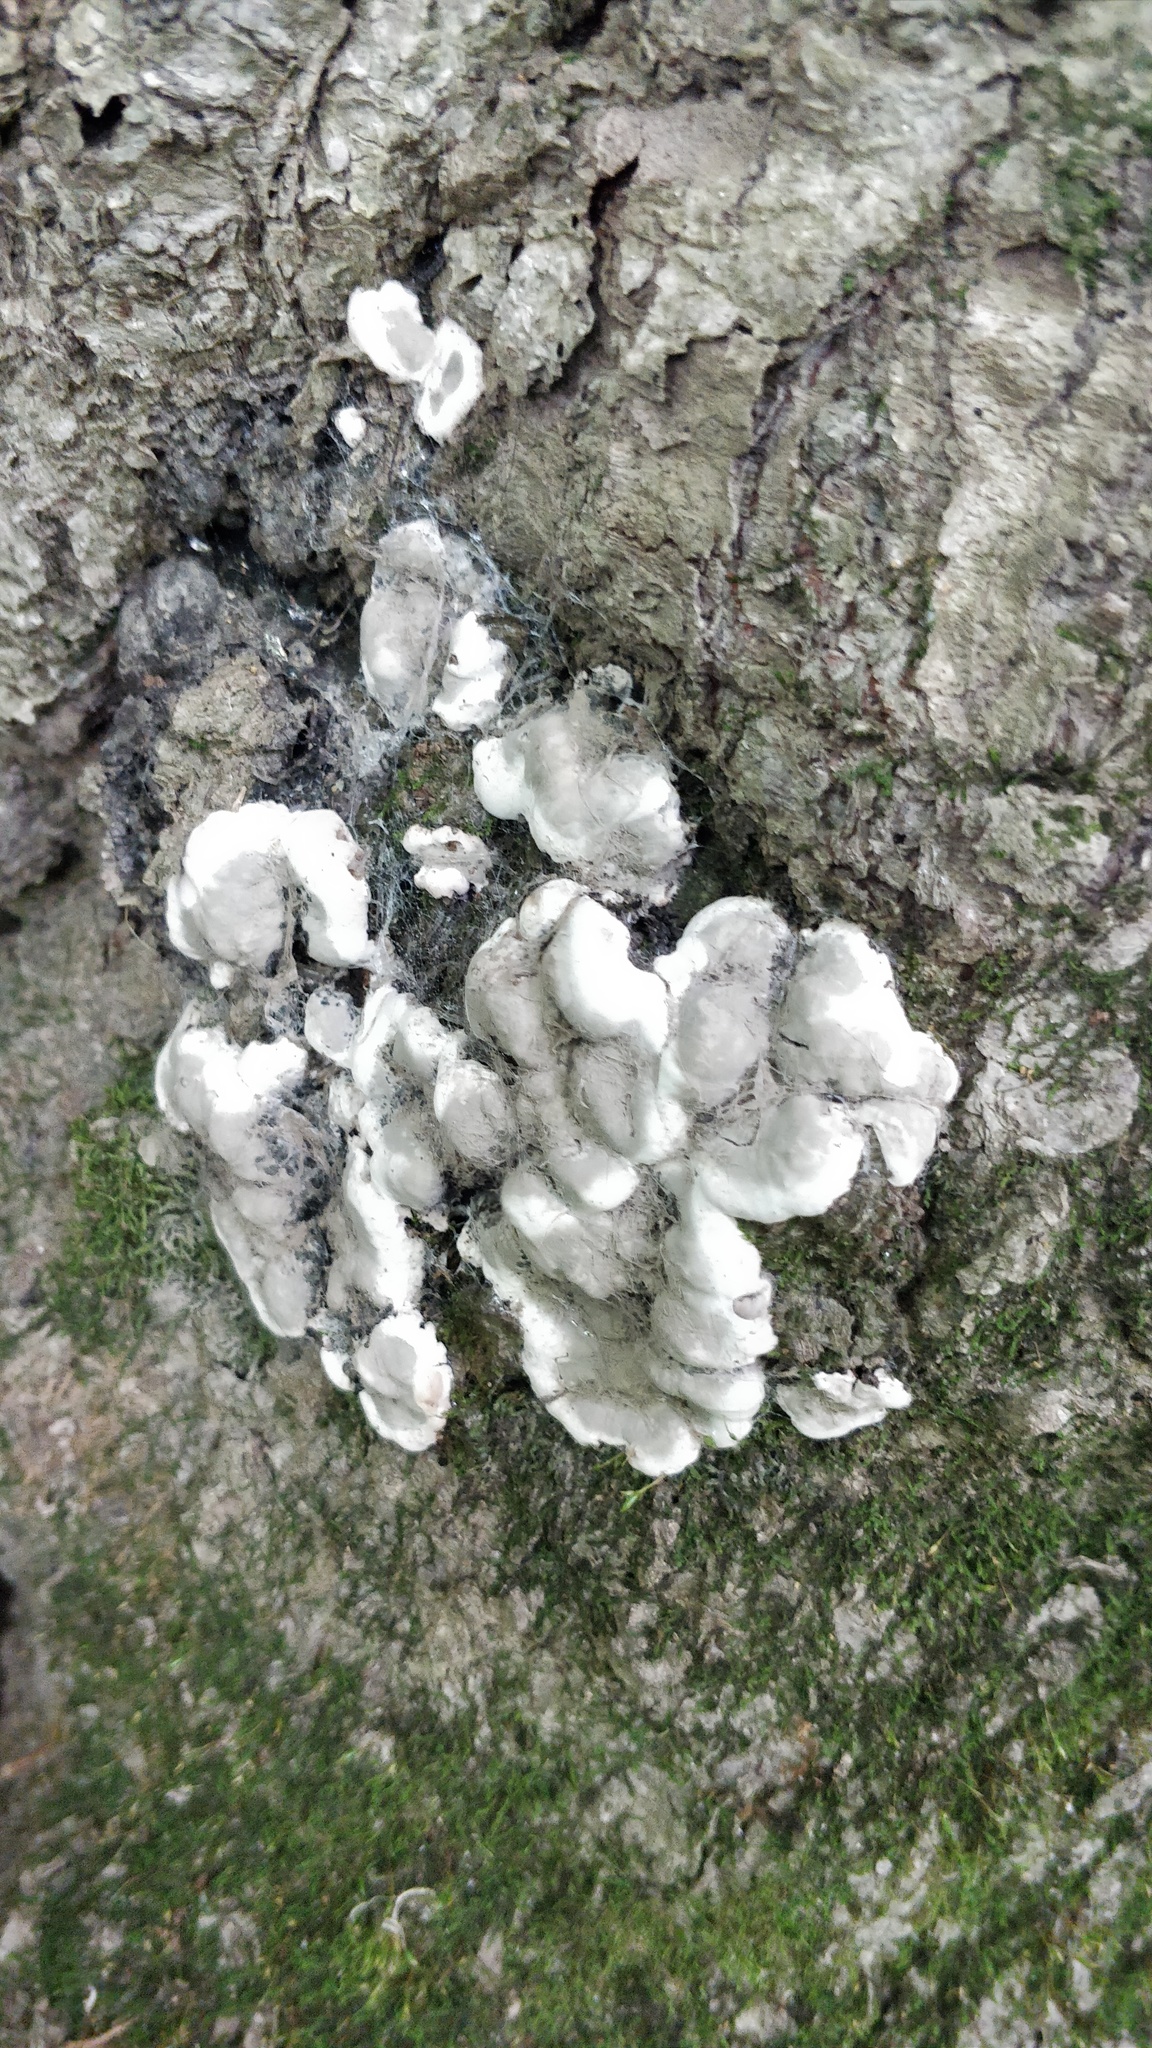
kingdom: Fungi
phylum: Ascomycota
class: Sordariomycetes
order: Xylariales
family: Xylariaceae
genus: Kretzschmaria
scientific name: Kretzschmaria deusta
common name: Brittle cinder
